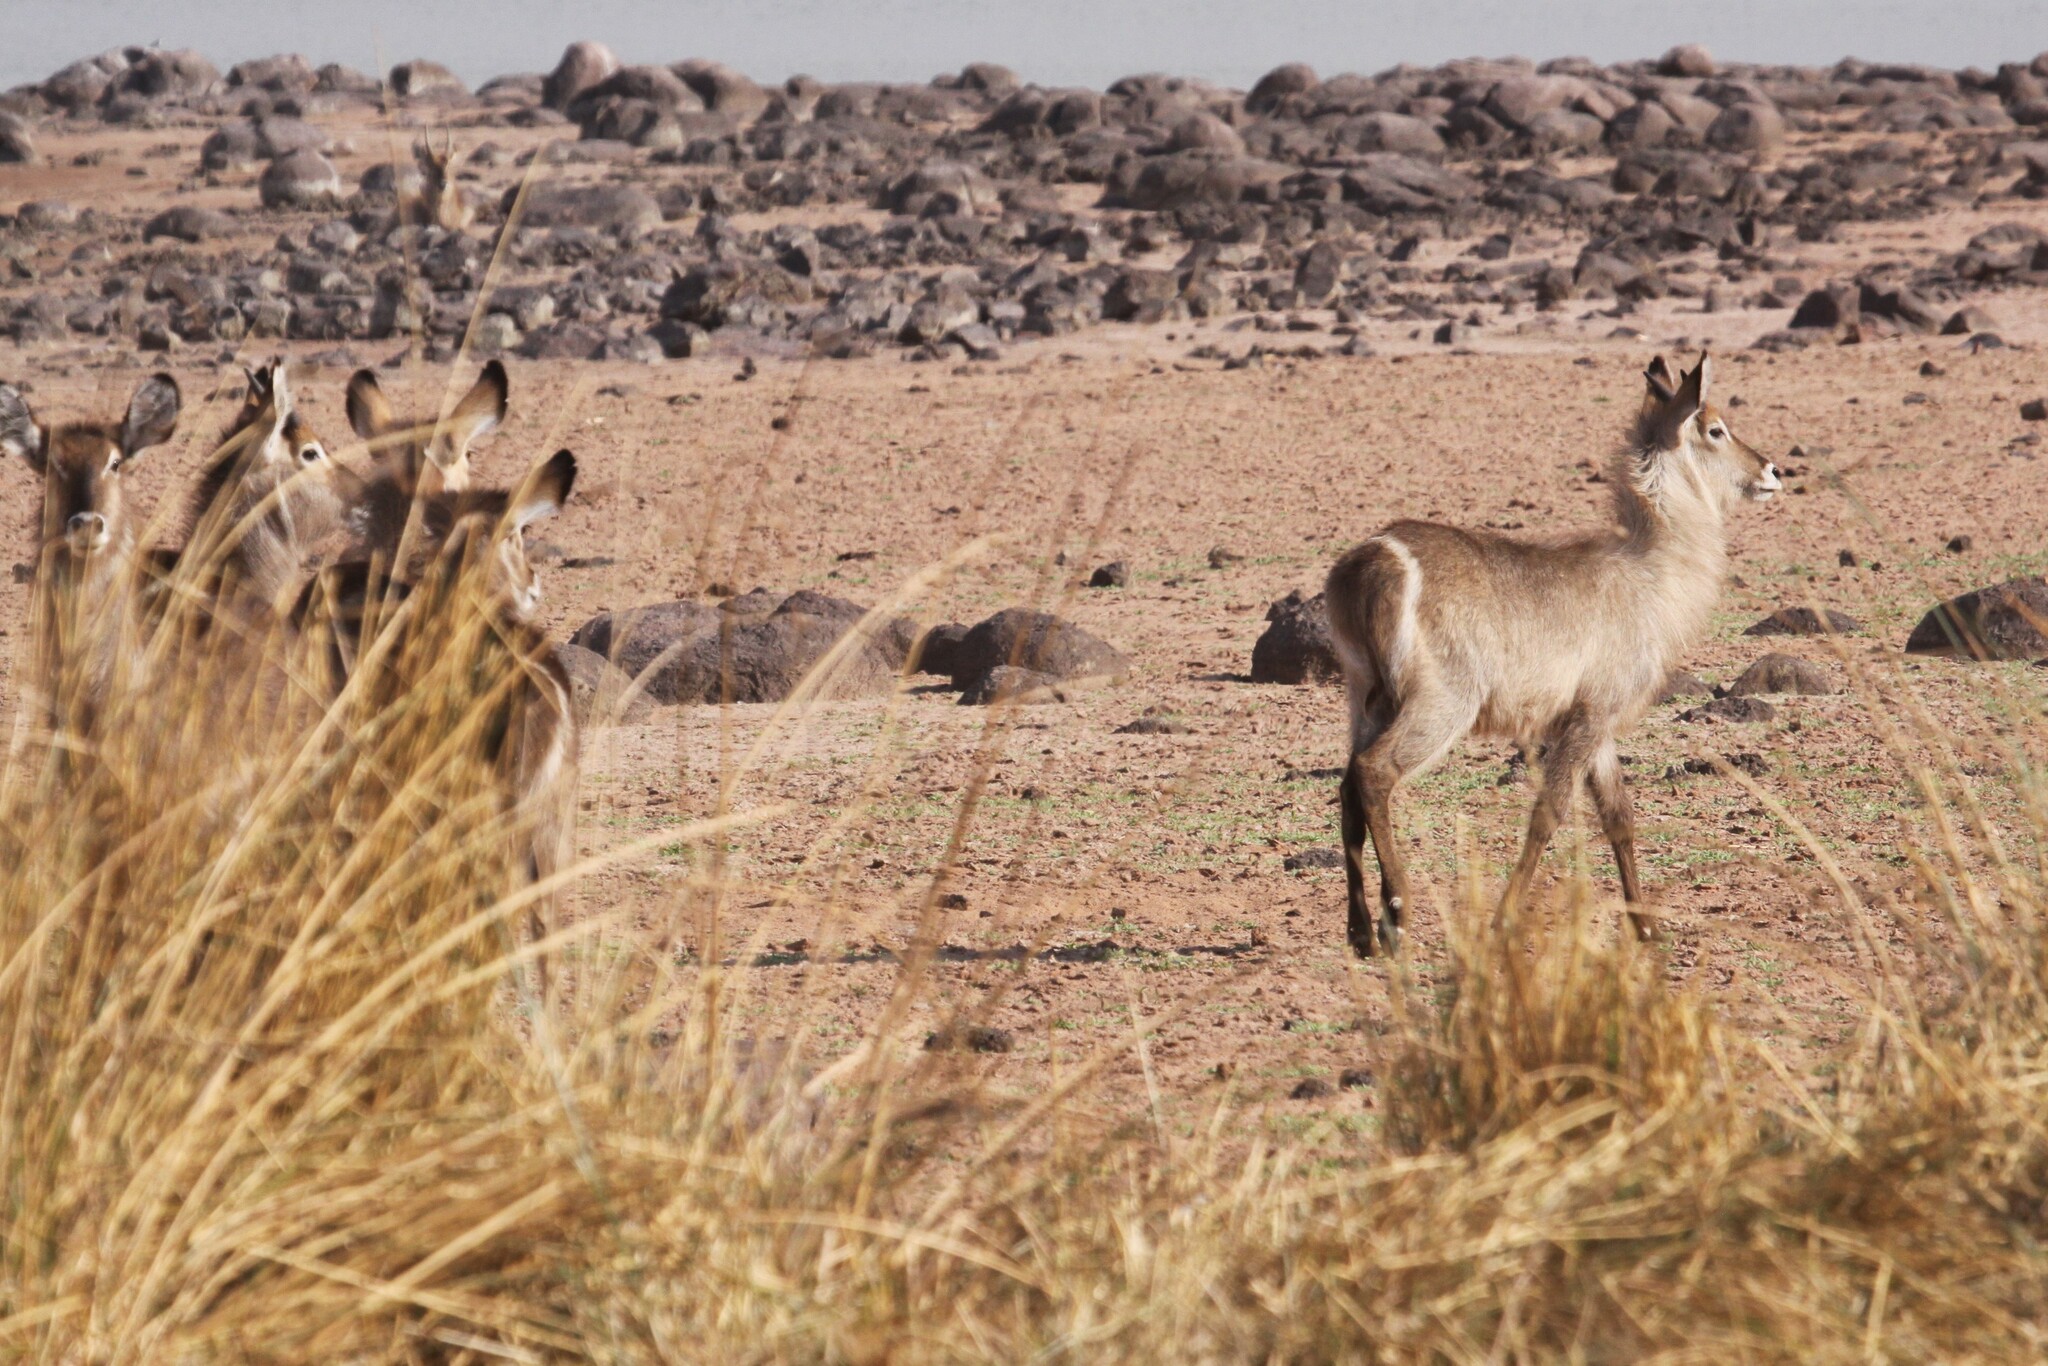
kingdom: Animalia
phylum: Chordata
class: Mammalia
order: Artiodactyla
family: Bovidae
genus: Kobus
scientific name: Kobus ellipsiprymnus
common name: Waterbuck
